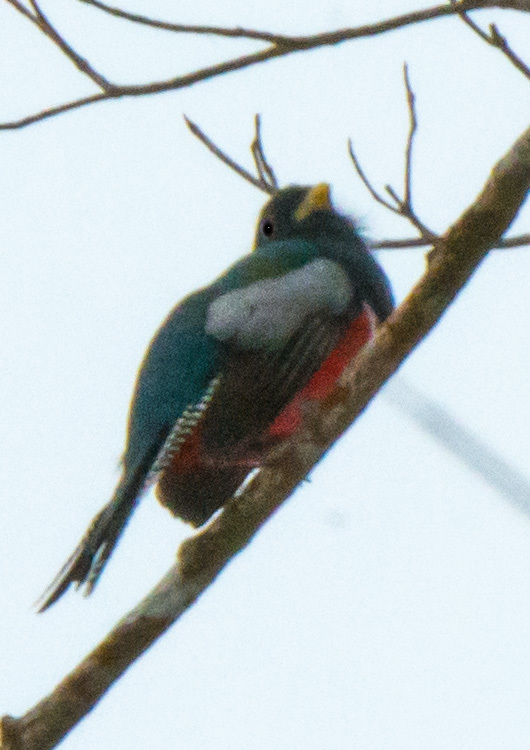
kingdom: Animalia
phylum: Chordata
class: Aves
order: Trogoniformes
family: Trogonidae
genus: Trogon
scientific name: Trogon collaris
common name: Collared trogon
